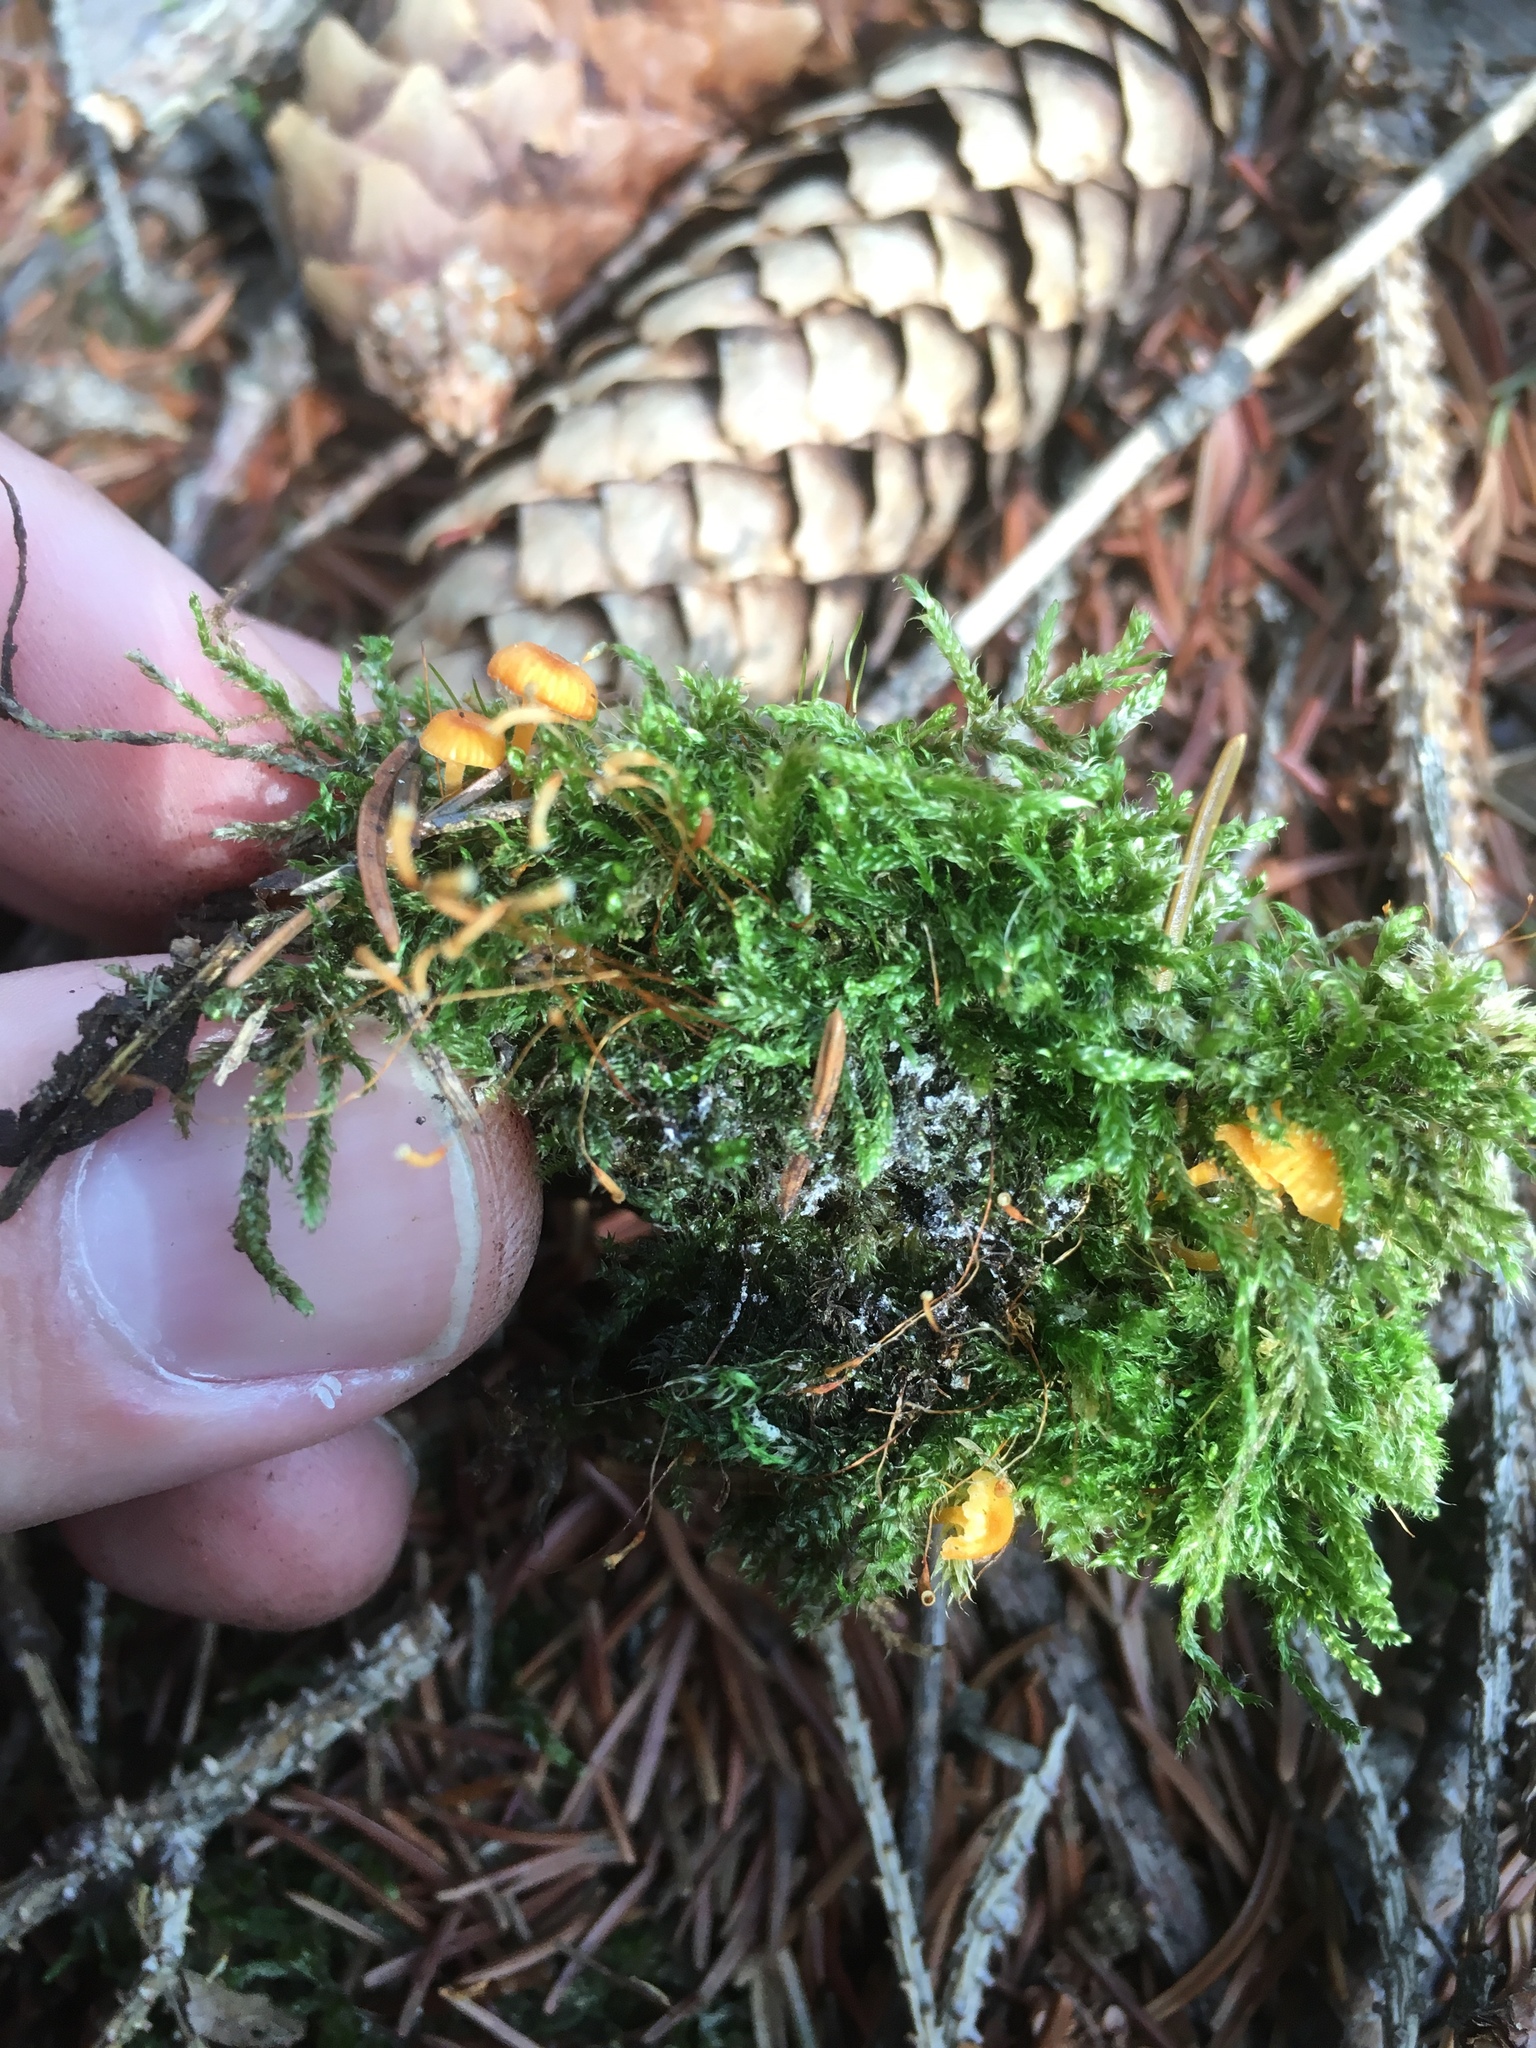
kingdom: Fungi
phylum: Basidiomycota
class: Agaricomycetes
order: Hymenochaetales
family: Rickenellaceae
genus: Rickenella
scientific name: Rickenella fibula
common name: Orange mosscap
